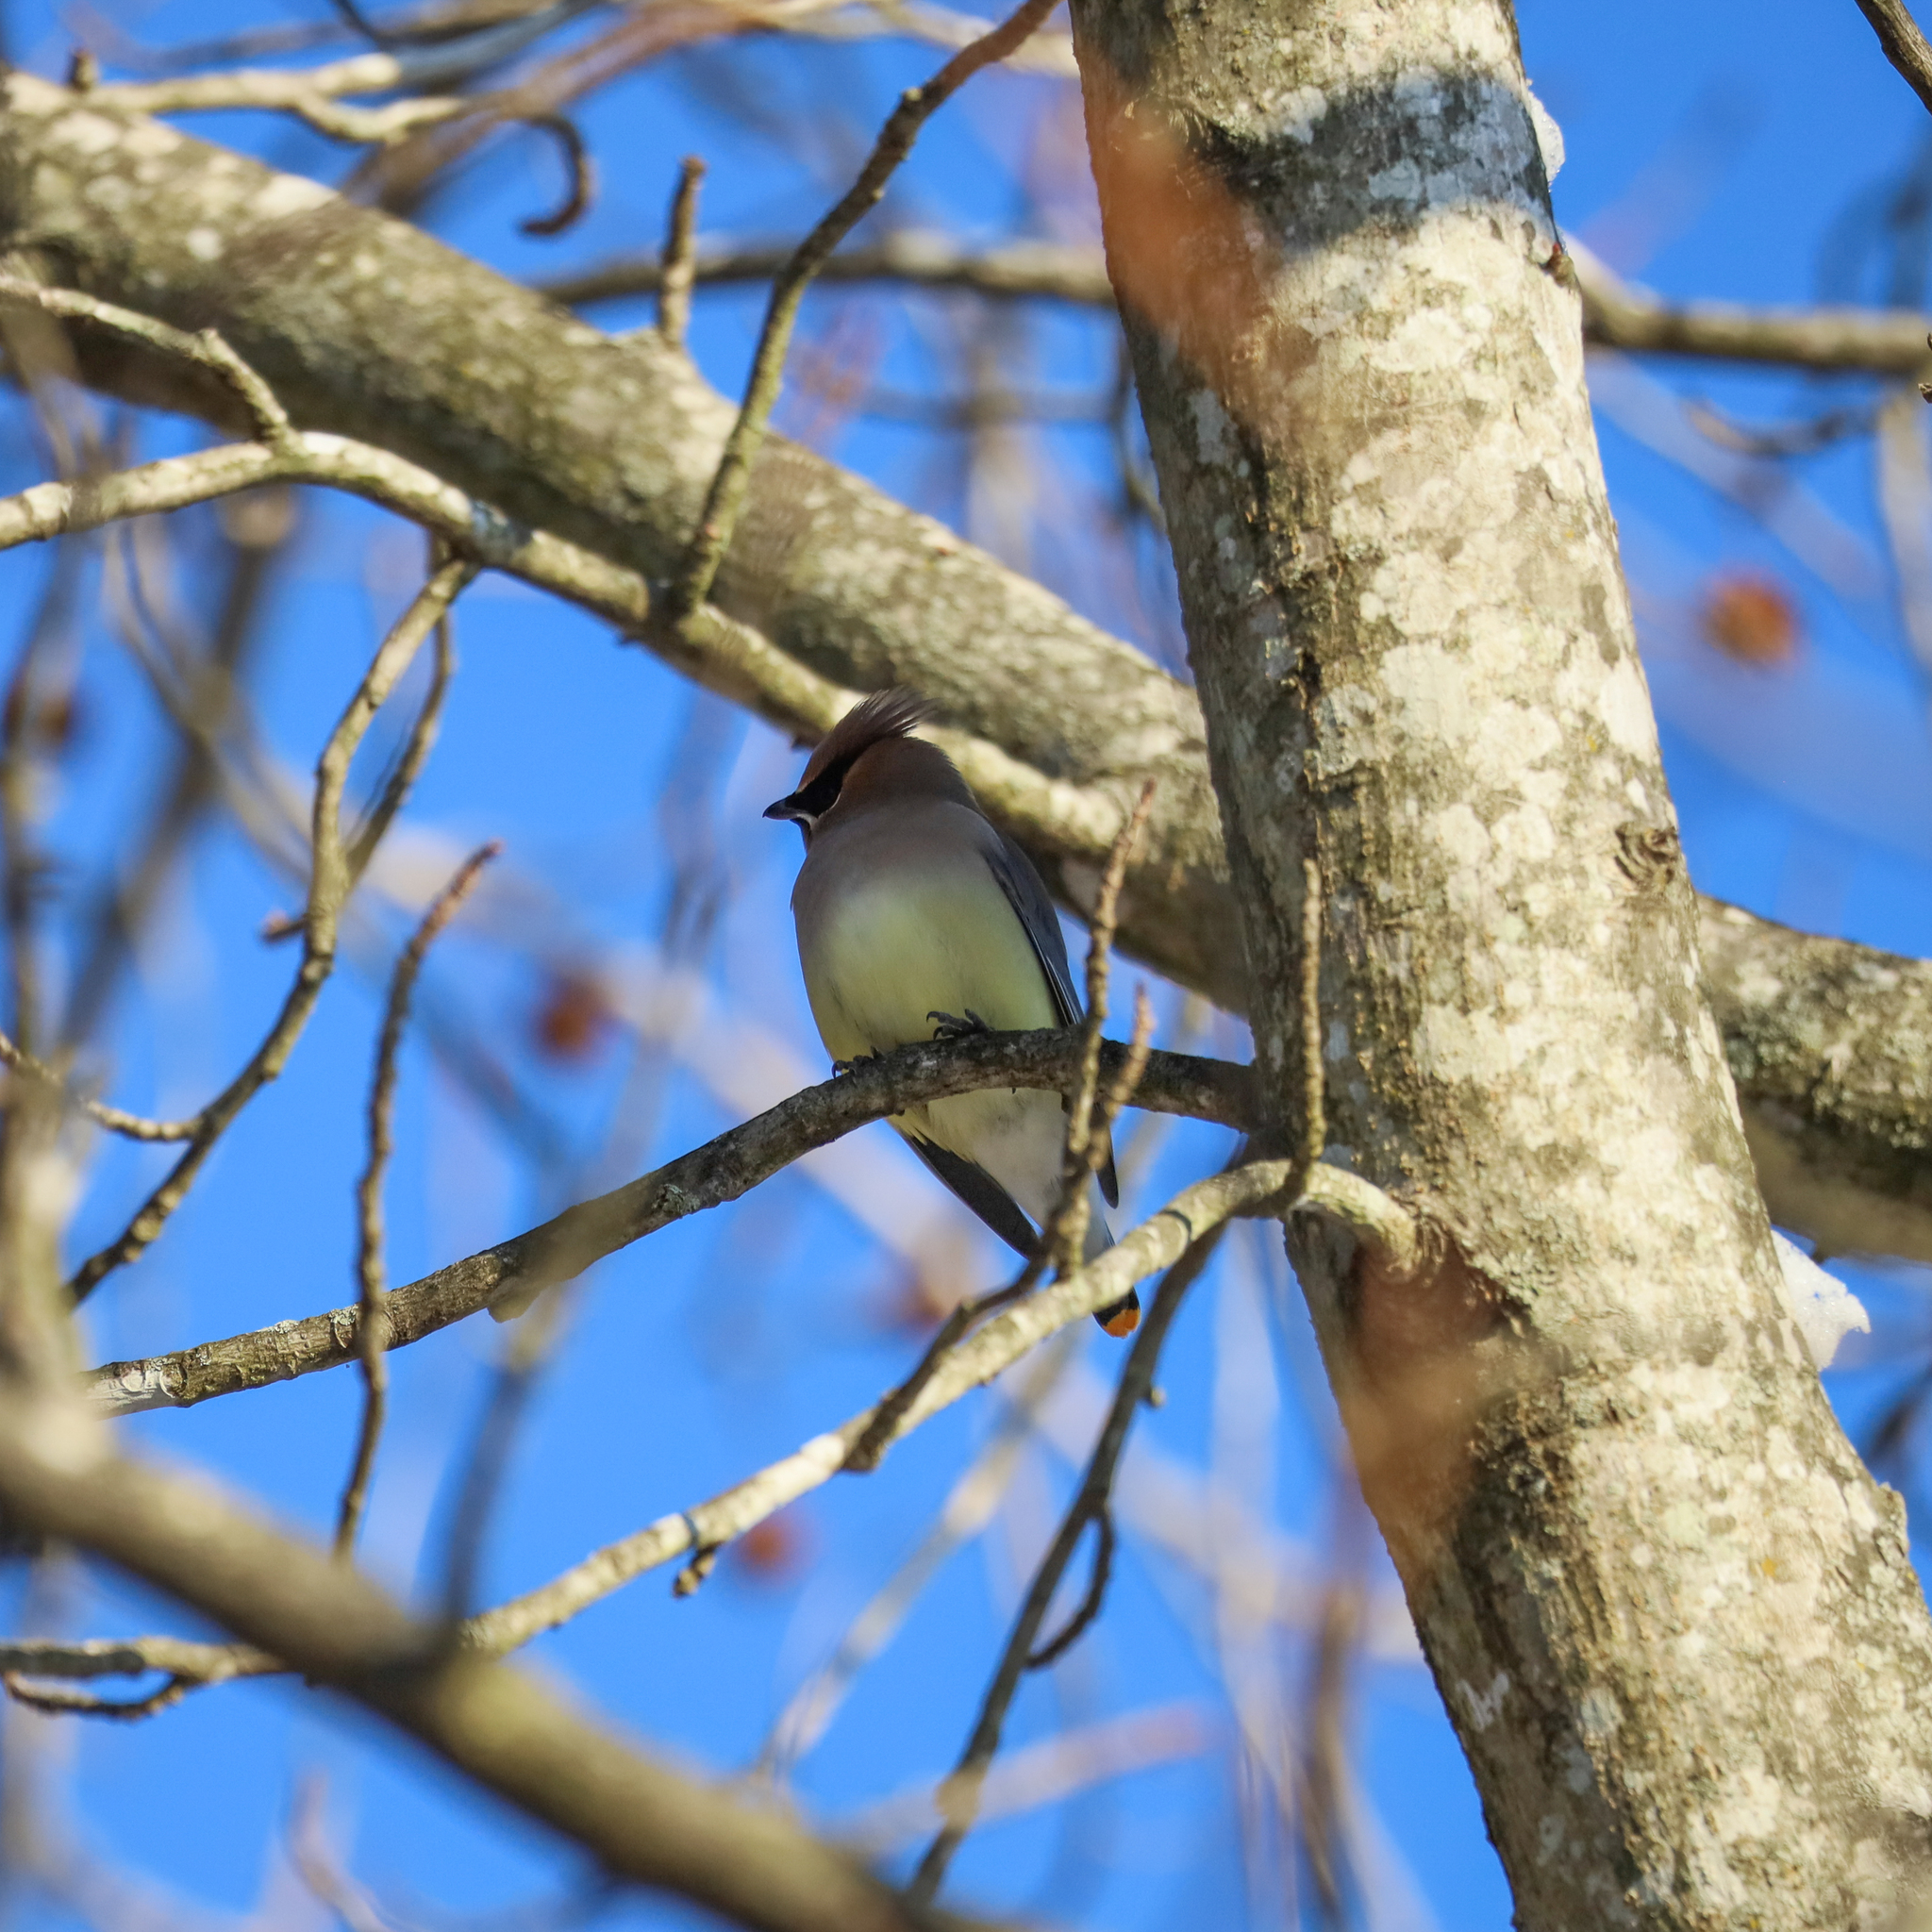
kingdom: Animalia
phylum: Chordata
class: Aves
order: Passeriformes
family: Bombycillidae
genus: Bombycilla
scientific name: Bombycilla cedrorum
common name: Cedar waxwing
